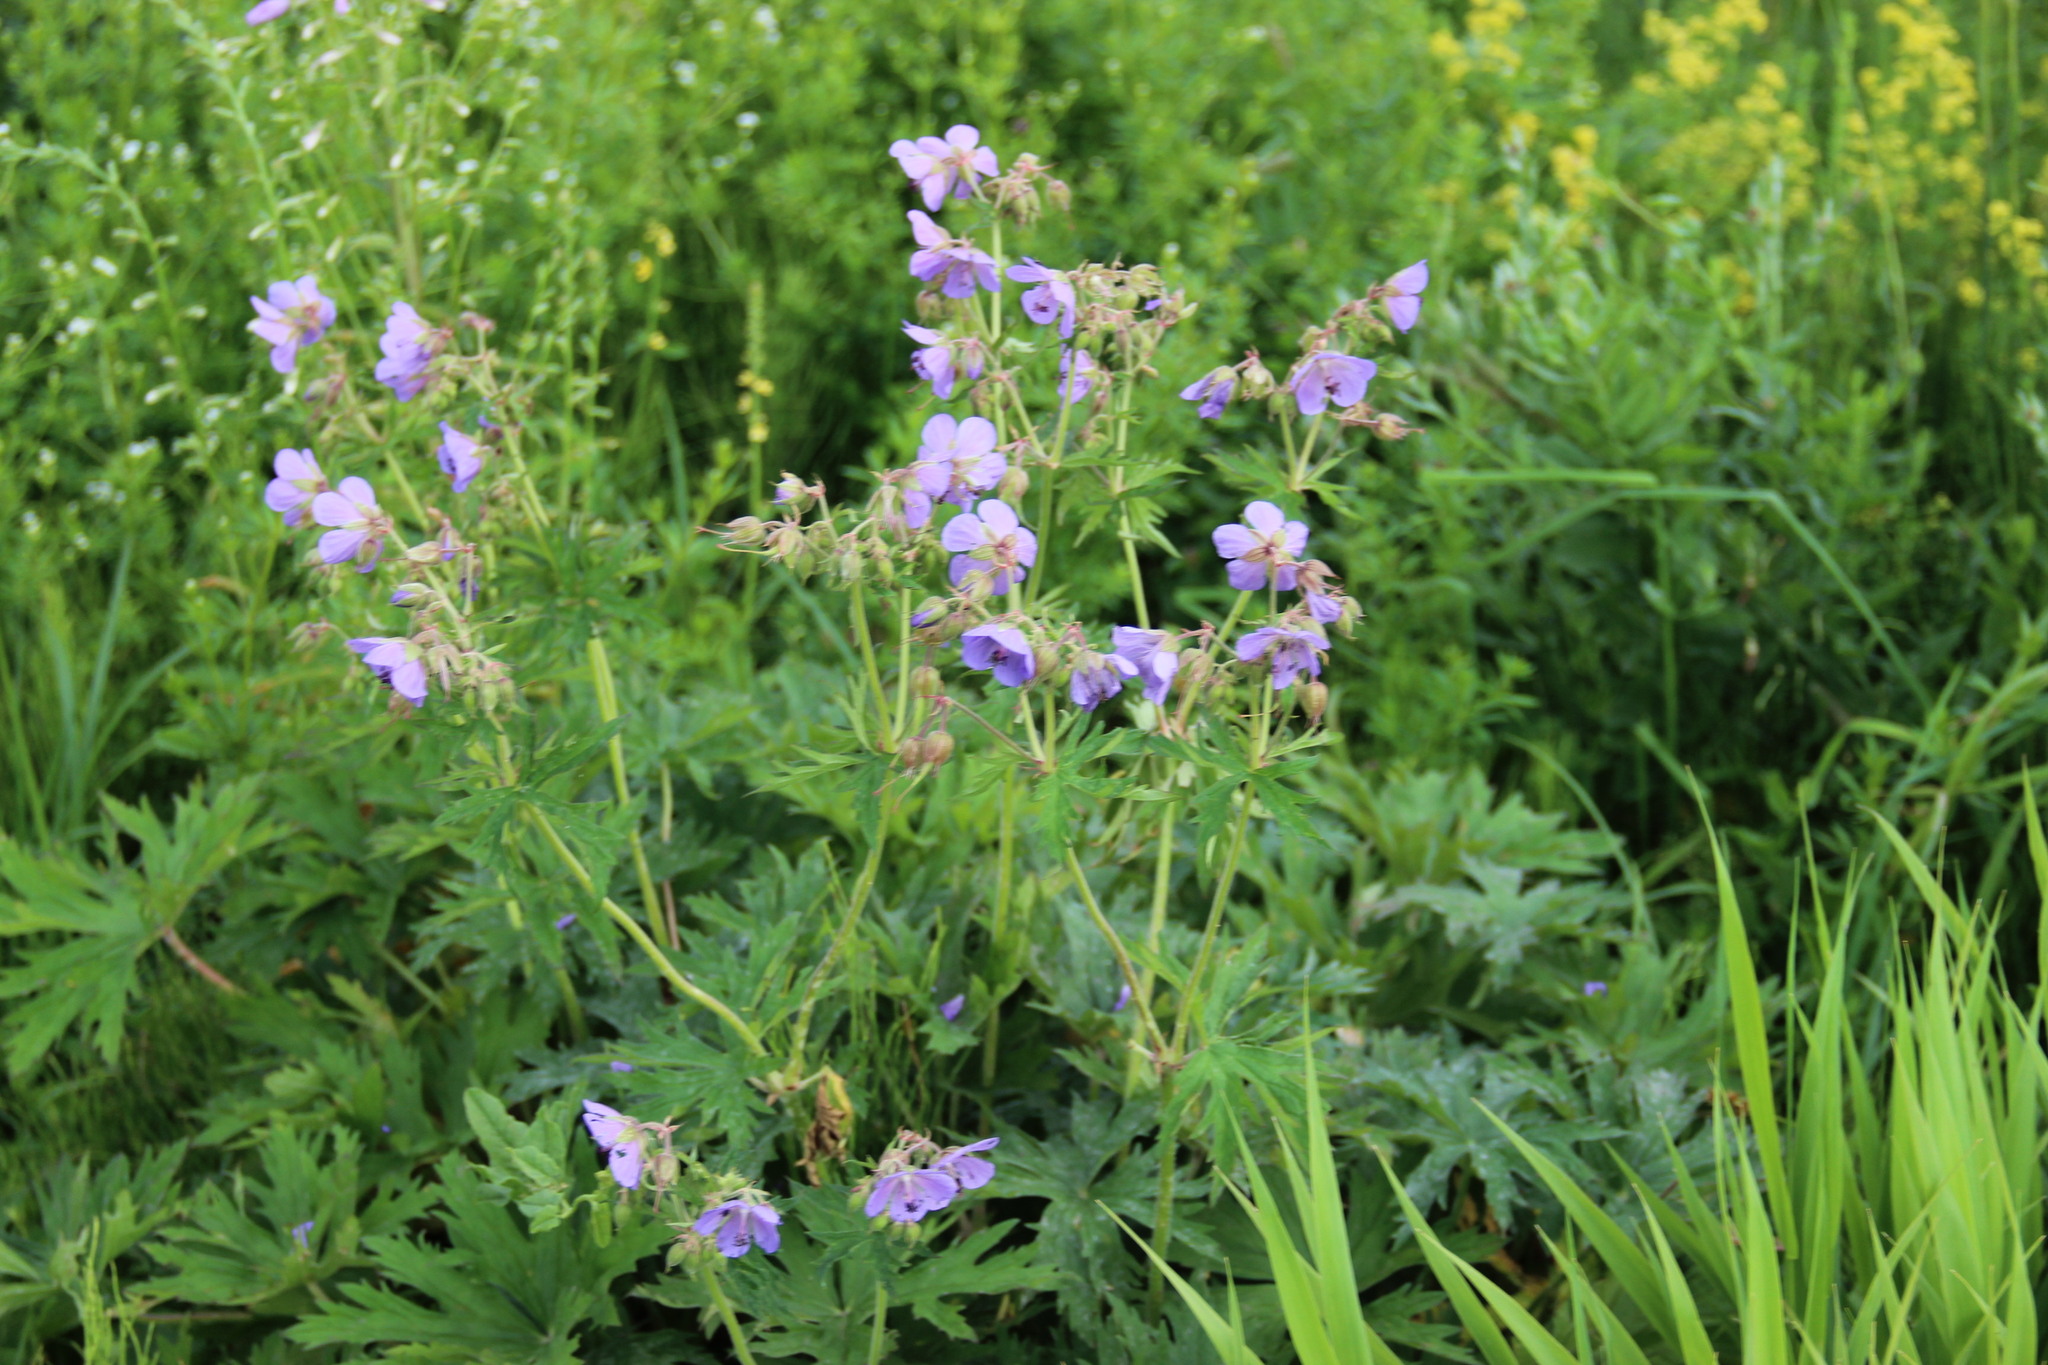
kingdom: Plantae
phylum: Tracheophyta
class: Magnoliopsida
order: Geraniales
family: Geraniaceae
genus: Geranium
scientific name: Geranium pratense
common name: Meadow crane's-bill
